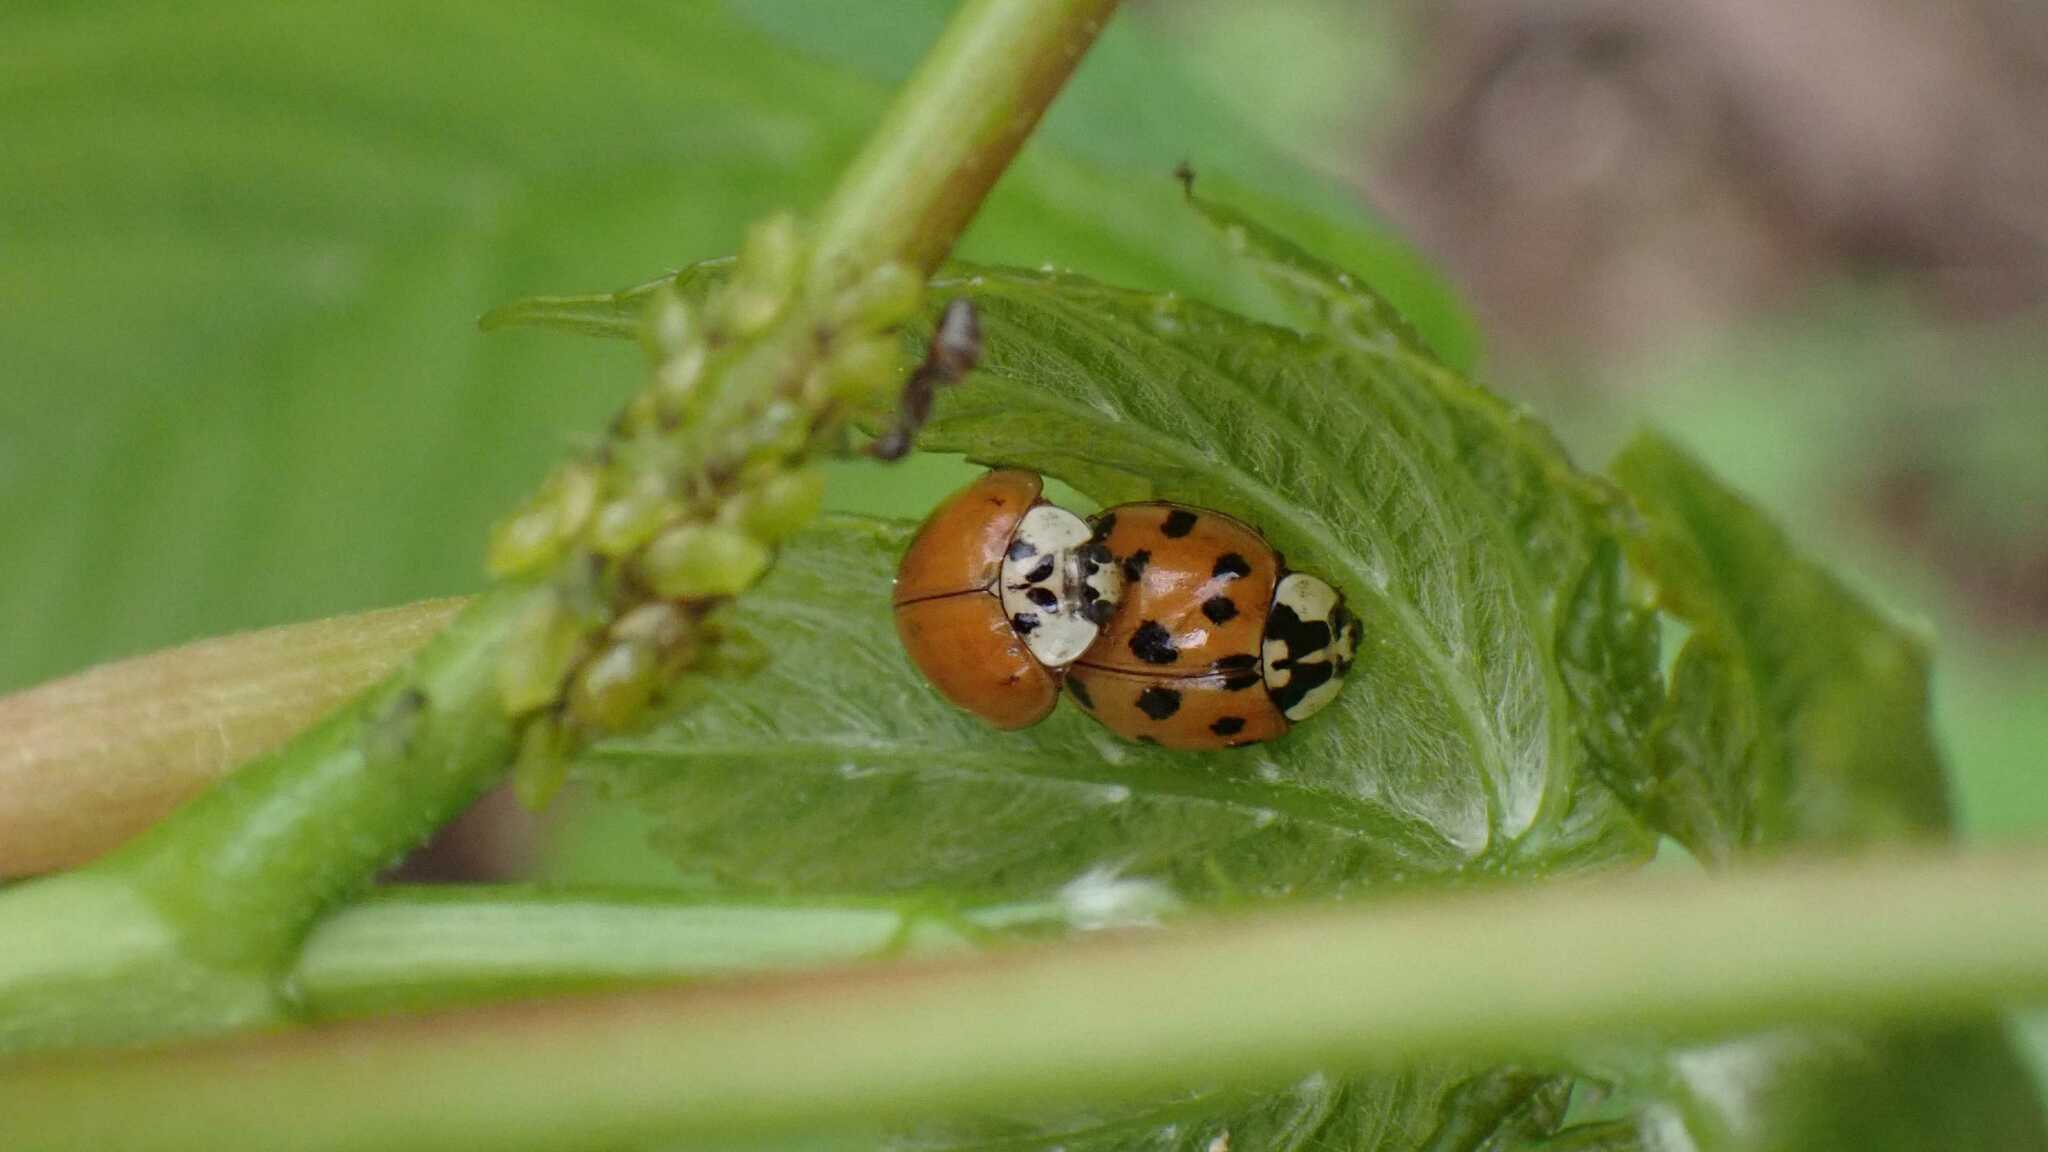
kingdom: Animalia
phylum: Arthropoda
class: Insecta
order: Coleoptera
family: Coccinellidae
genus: Harmonia
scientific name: Harmonia axyridis
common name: Harlequin ladybird
